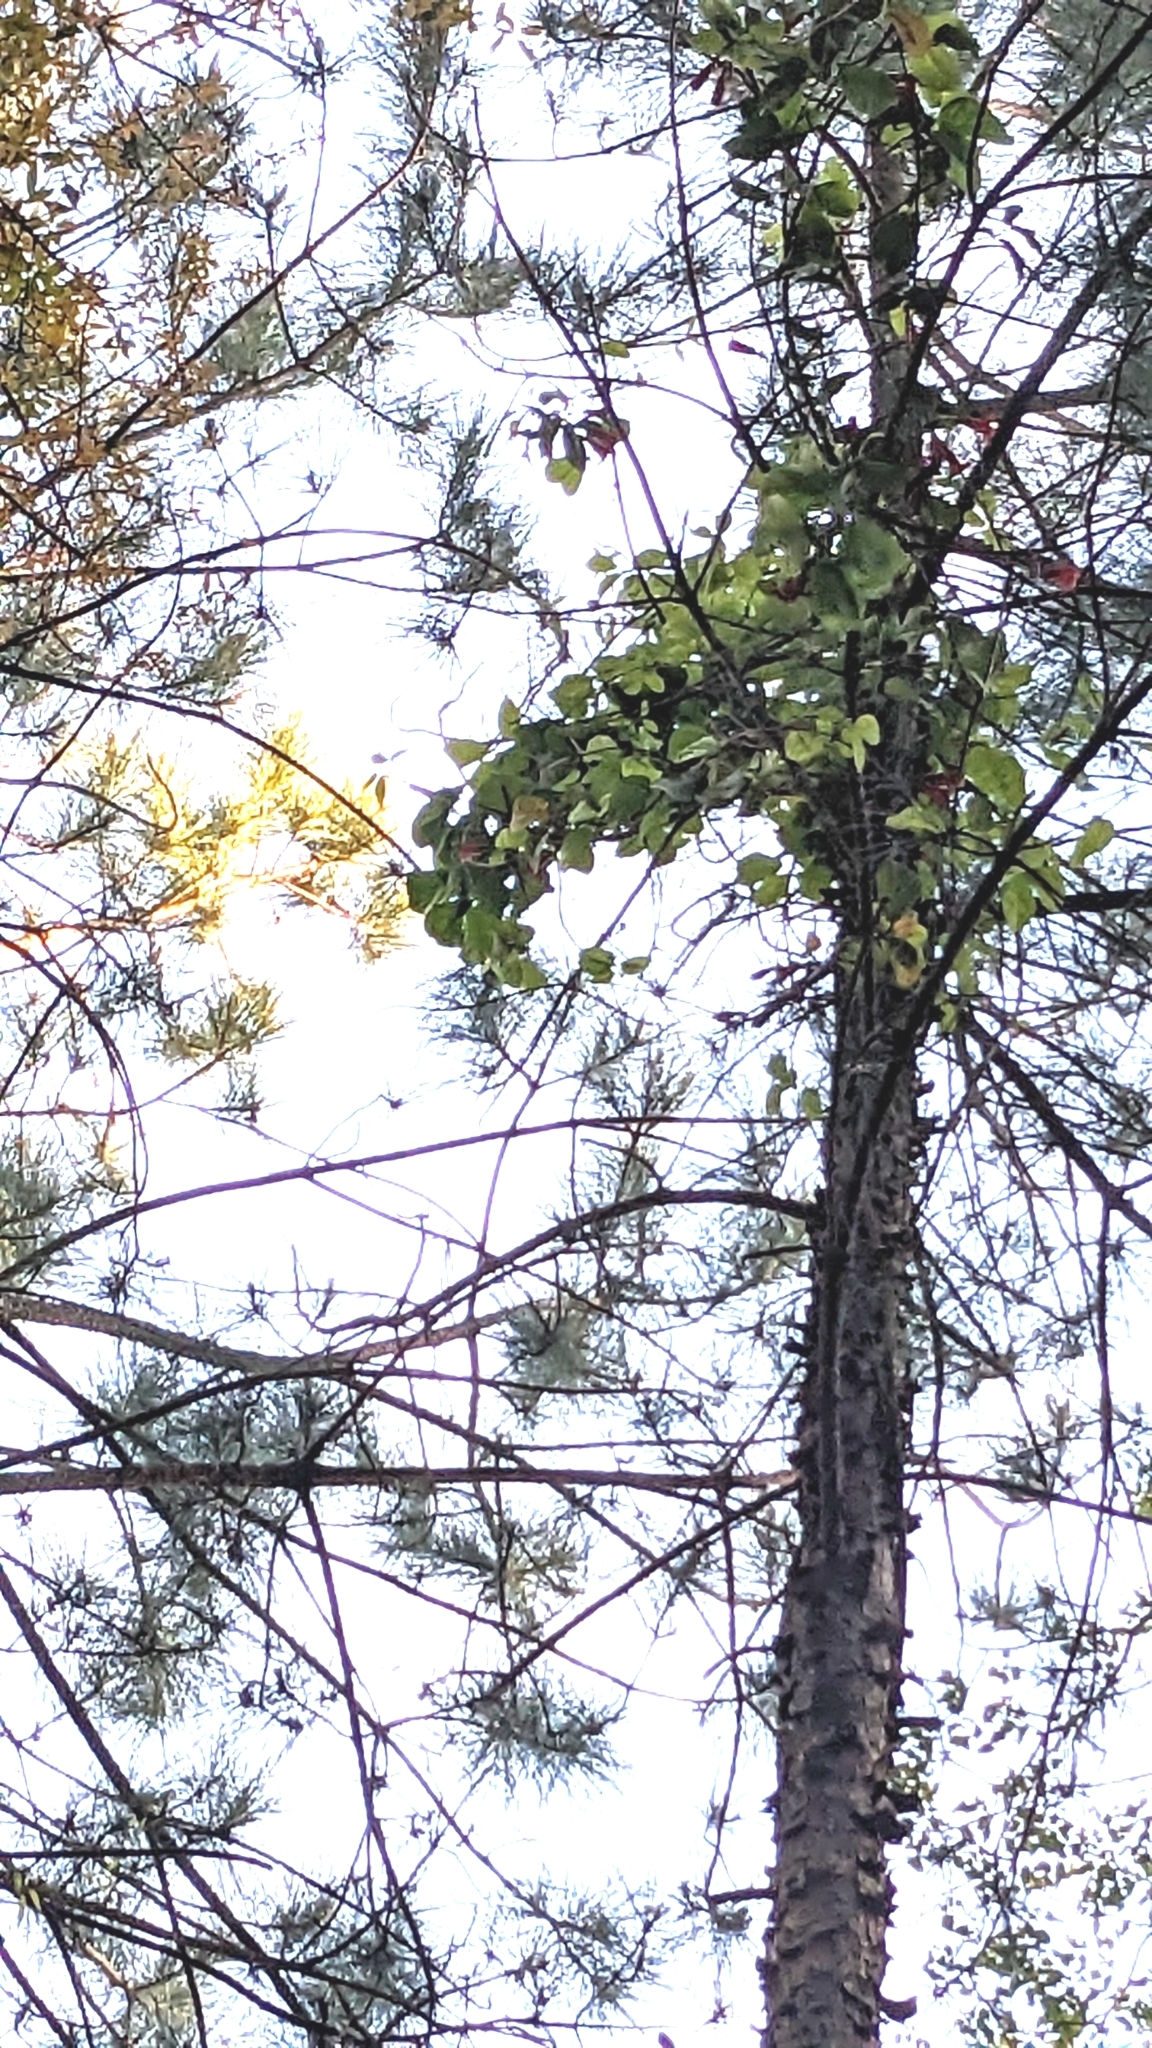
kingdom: Plantae
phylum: Tracheophyta
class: Magnoliopsida
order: Lamiales
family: Bignoniaceae
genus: Bignonia
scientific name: Bignonia capreolata
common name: Crossvine
